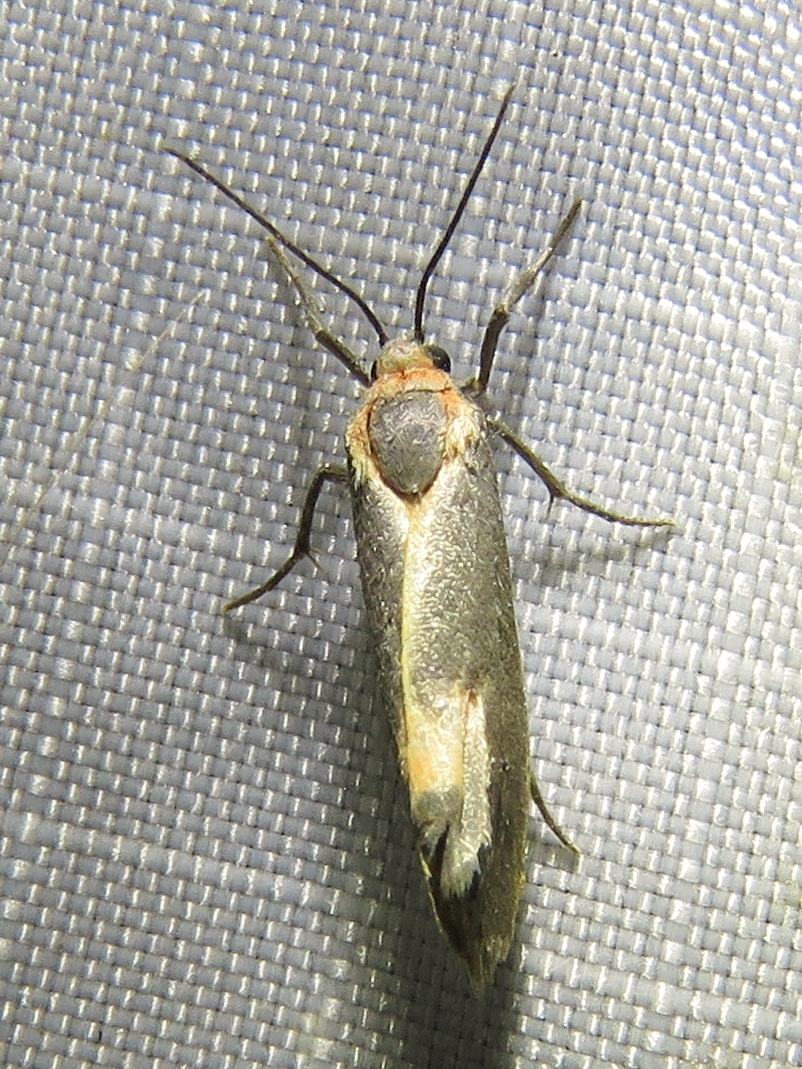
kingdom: Animalia
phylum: Arthropoda
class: Insecta
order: Lepidoptera
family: Erebidae
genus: Cisthene
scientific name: Cisthene plumbea
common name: Lead colored lichen moth
